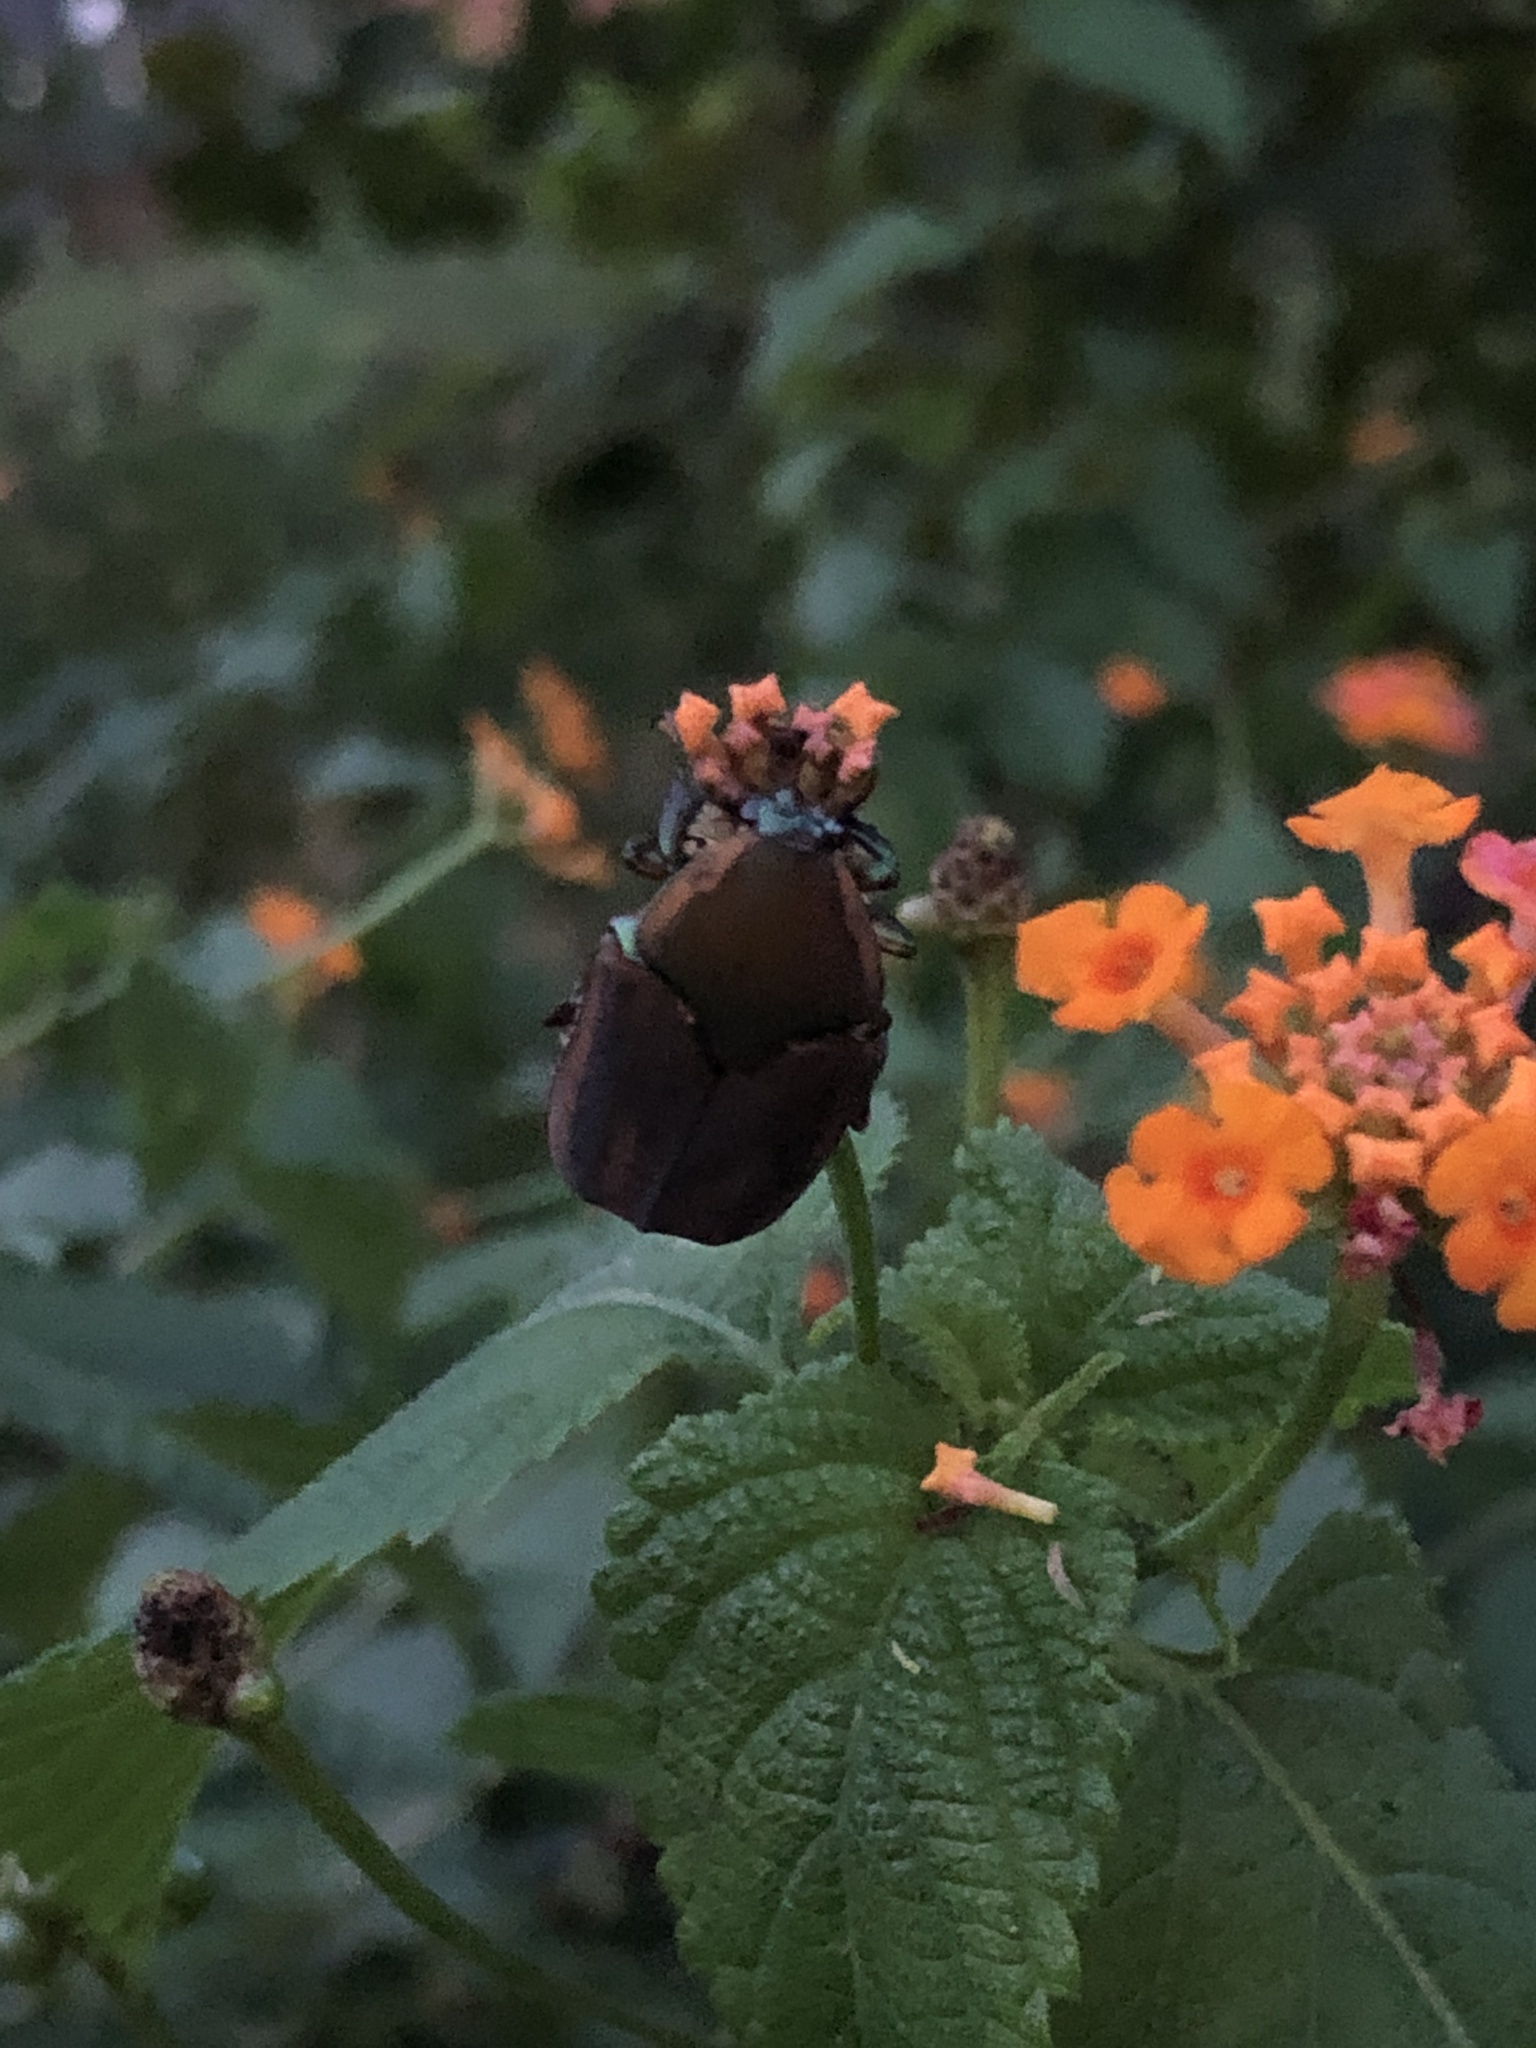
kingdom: Animalia
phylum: Arthropoda
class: Insecta
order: Coleoptera
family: Scarabaeidae
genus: Cotinis
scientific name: Cotinis nitida
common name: Common green june beetle
